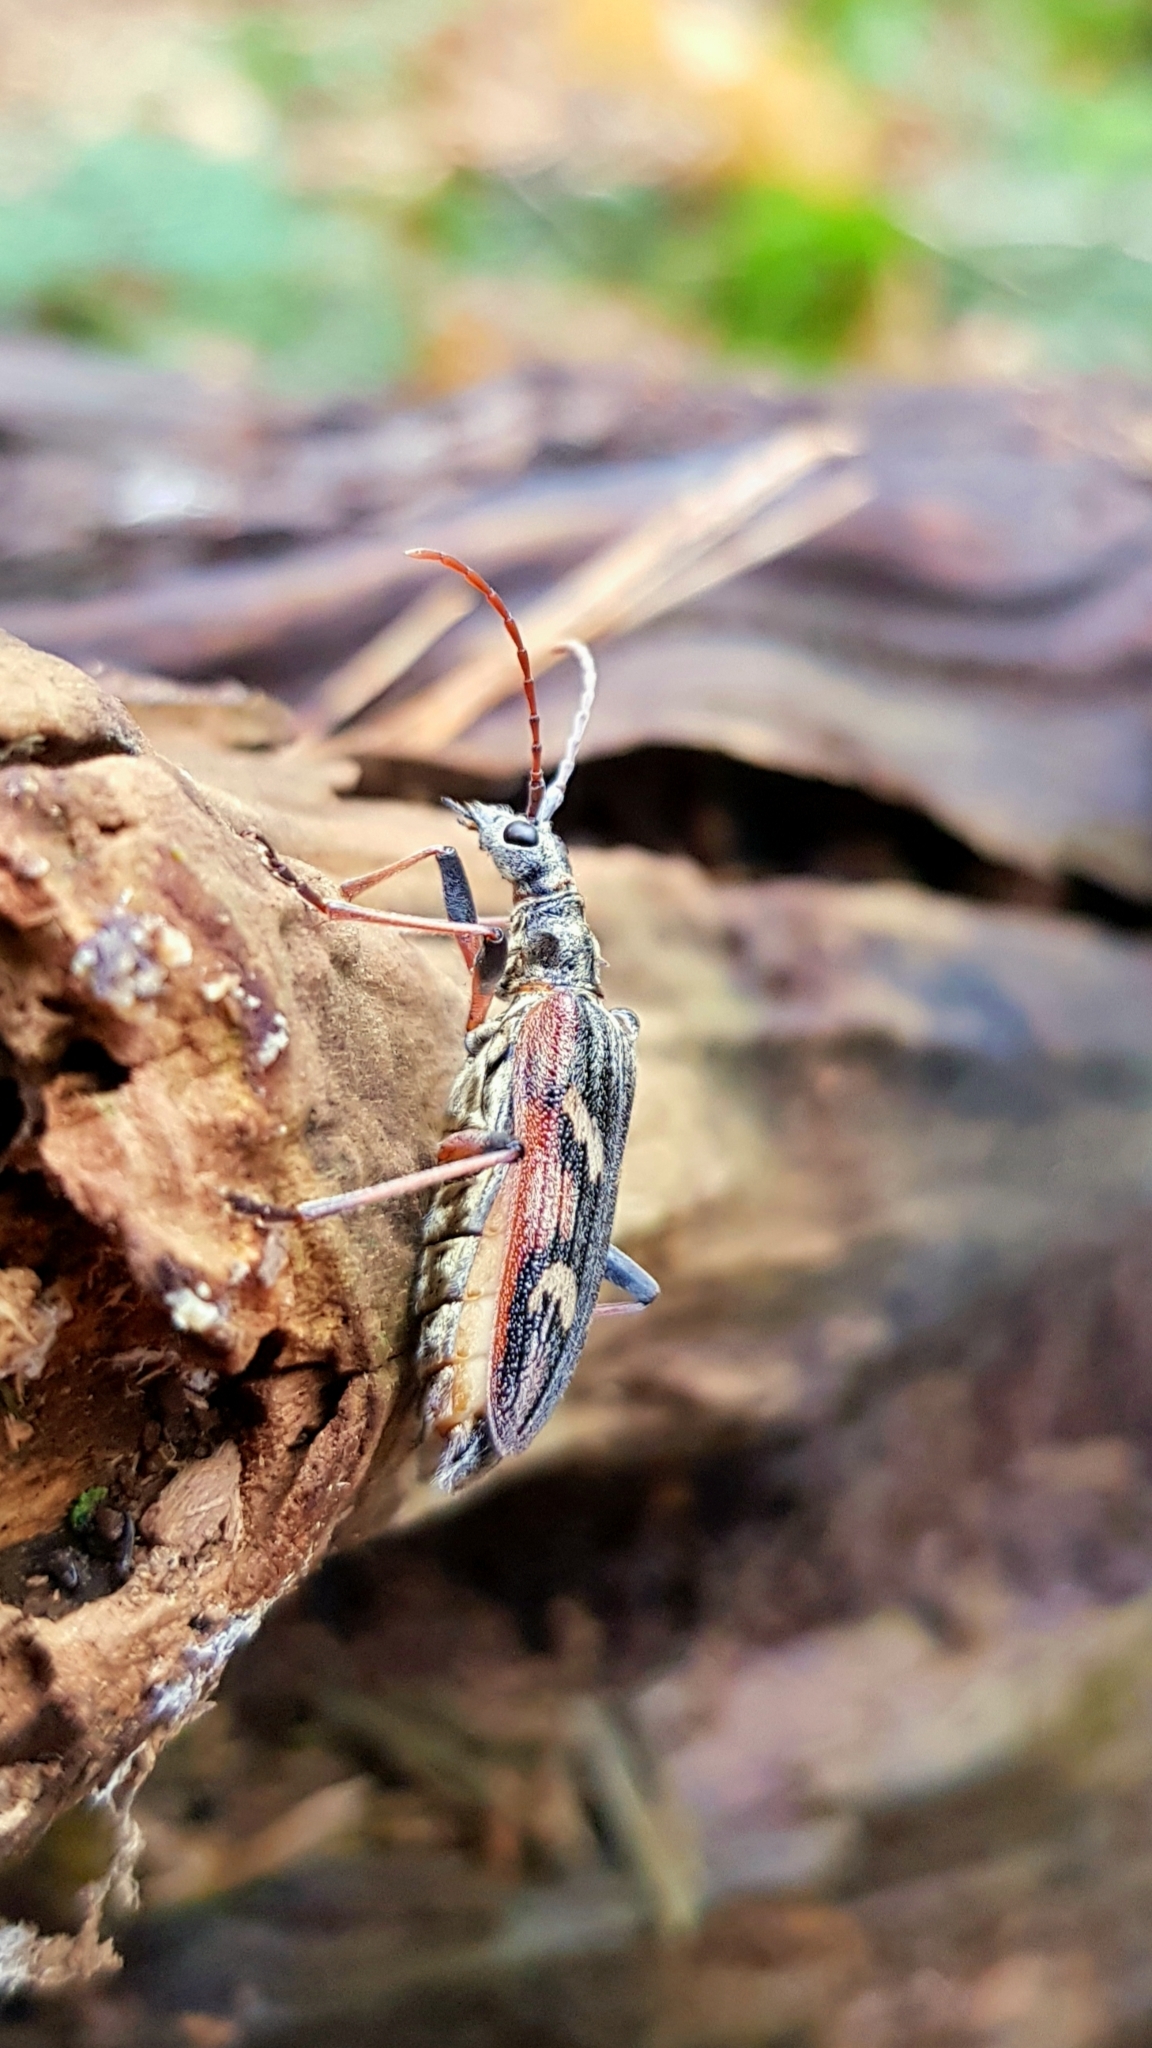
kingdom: Animalia
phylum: Arthropoda
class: Insecta
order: Coleoptera
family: Cerambycidae
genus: Rhagium
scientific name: Rhagium bifasciatum
